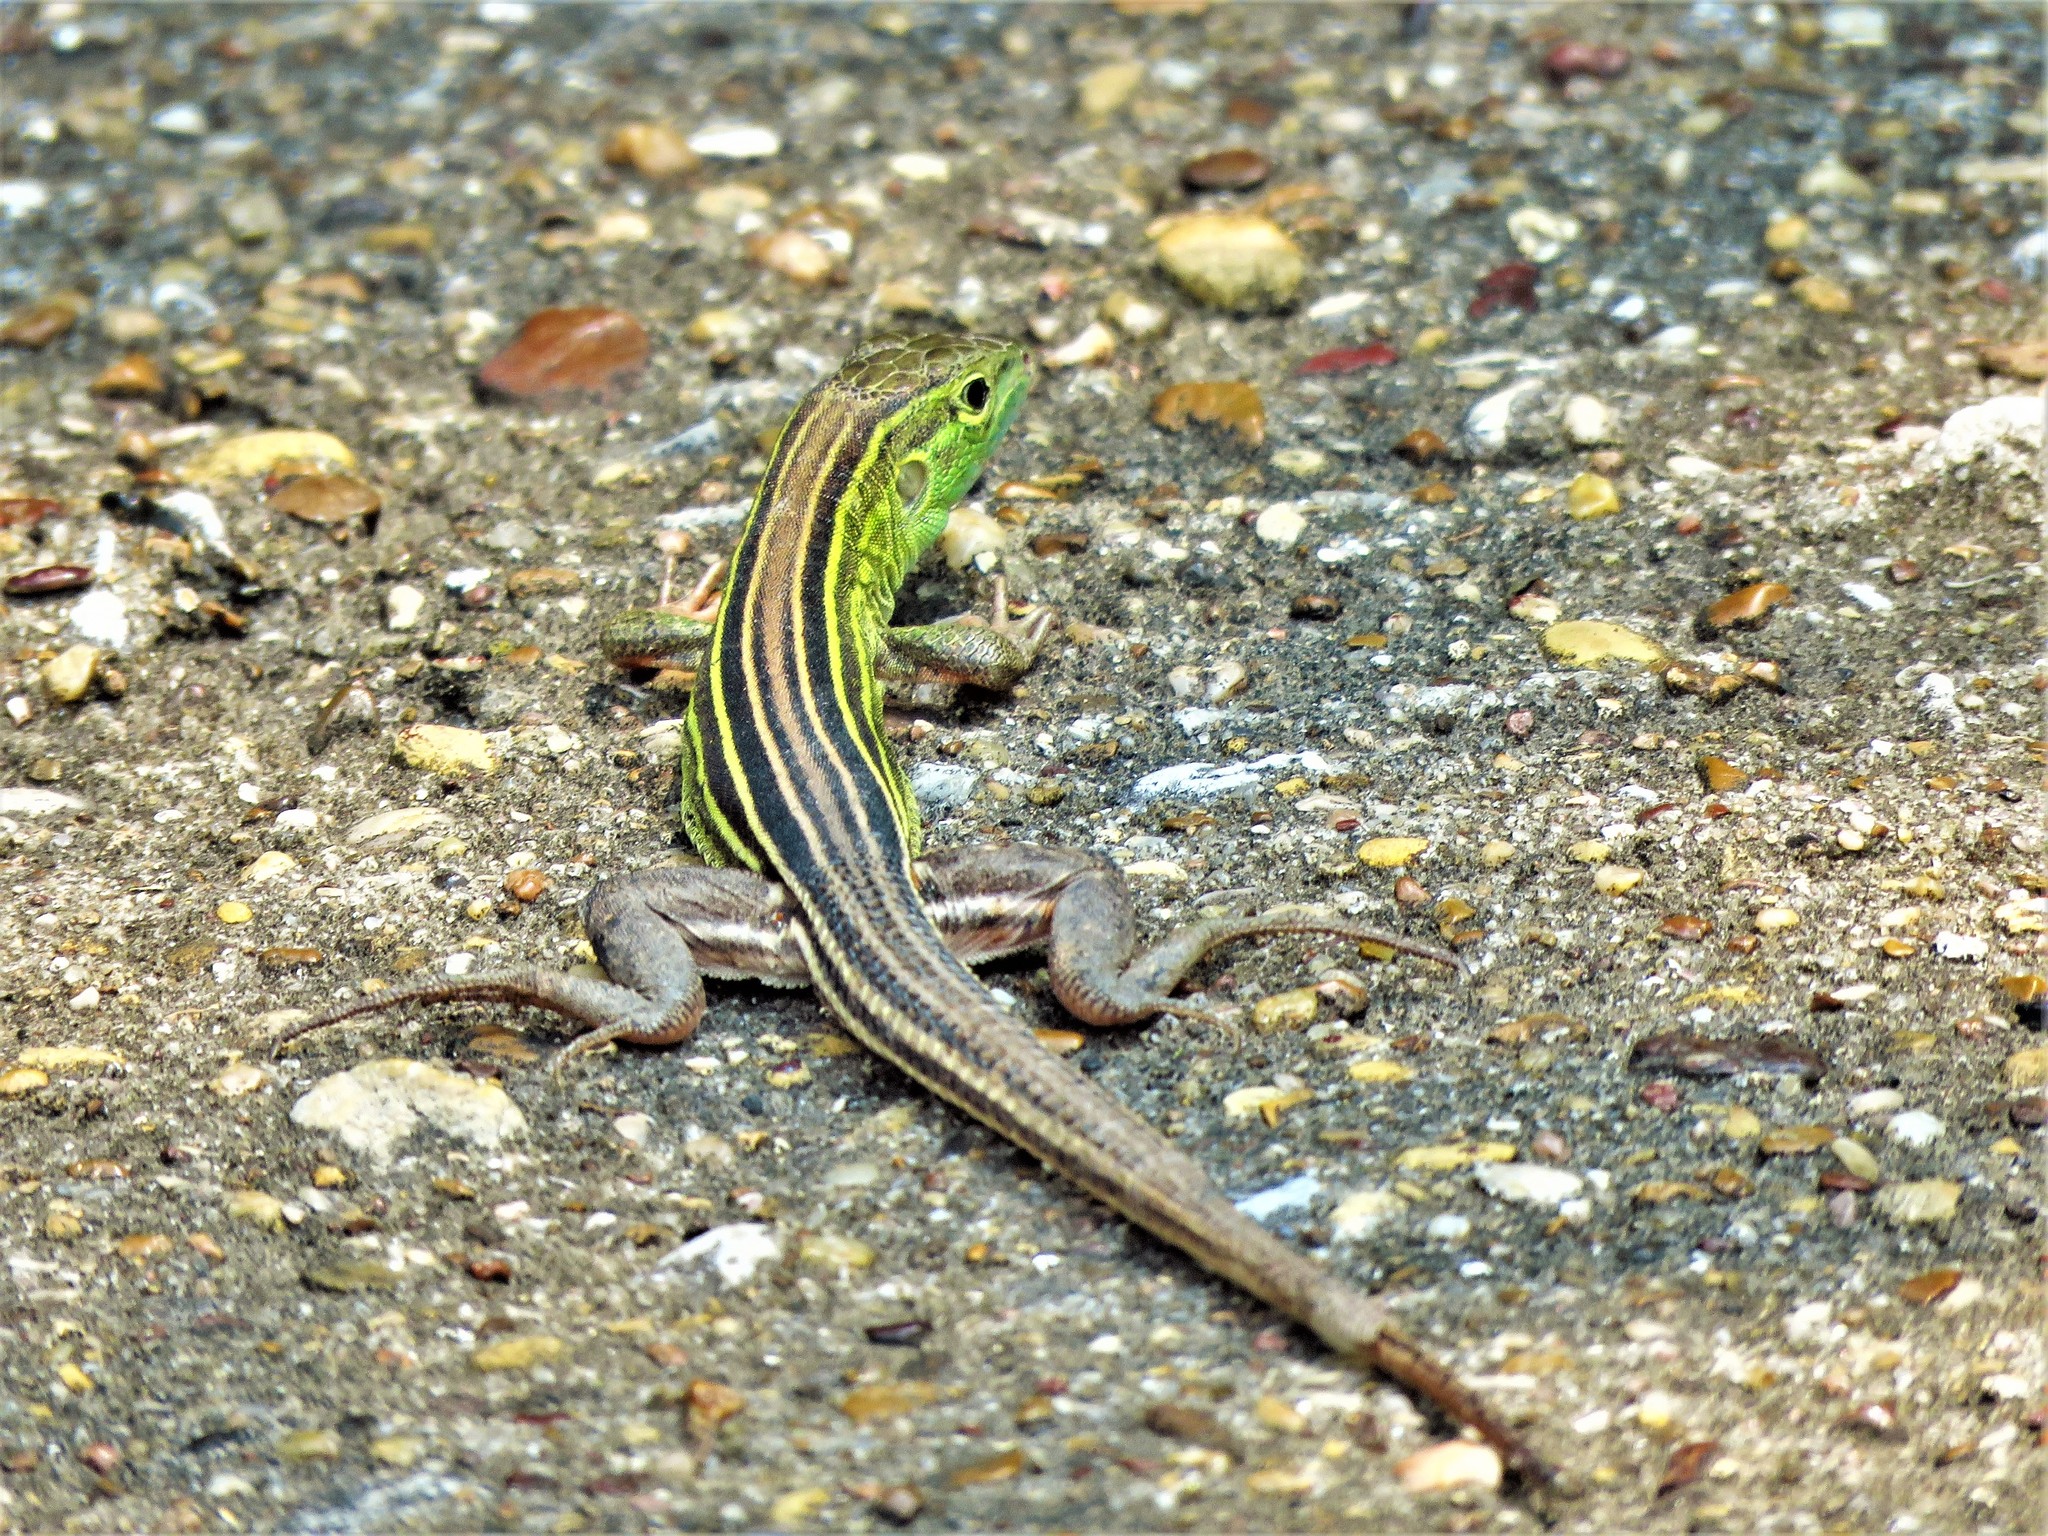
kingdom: Animalia
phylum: Chordata
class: Squamata
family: Teiidae
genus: Aspidoscelis
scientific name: Aspidoscelis sexlineatus
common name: Six-lined racerunner
